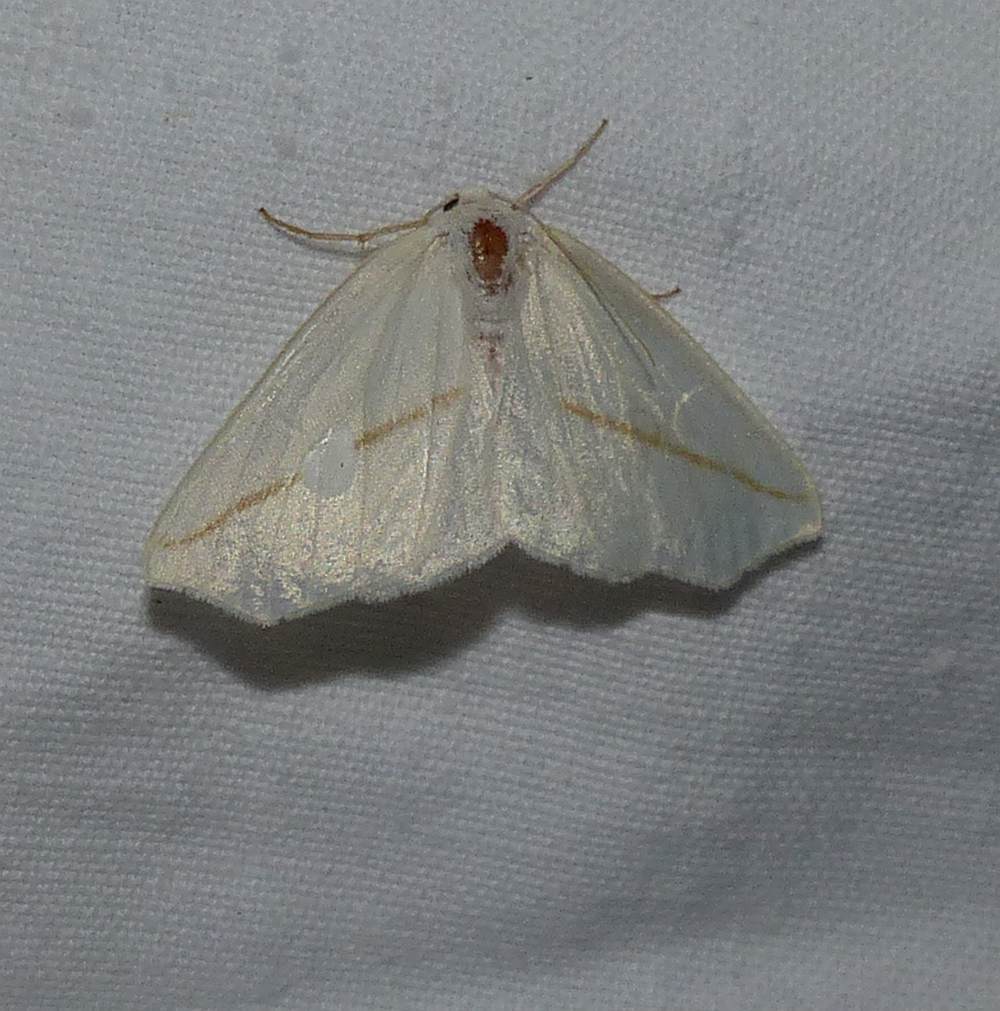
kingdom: Animalia
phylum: Arthropoda
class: Insecta
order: Lepidoptera
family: Geometridae
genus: Tetracis
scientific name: Tetracis cachexiata
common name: White slant-line
